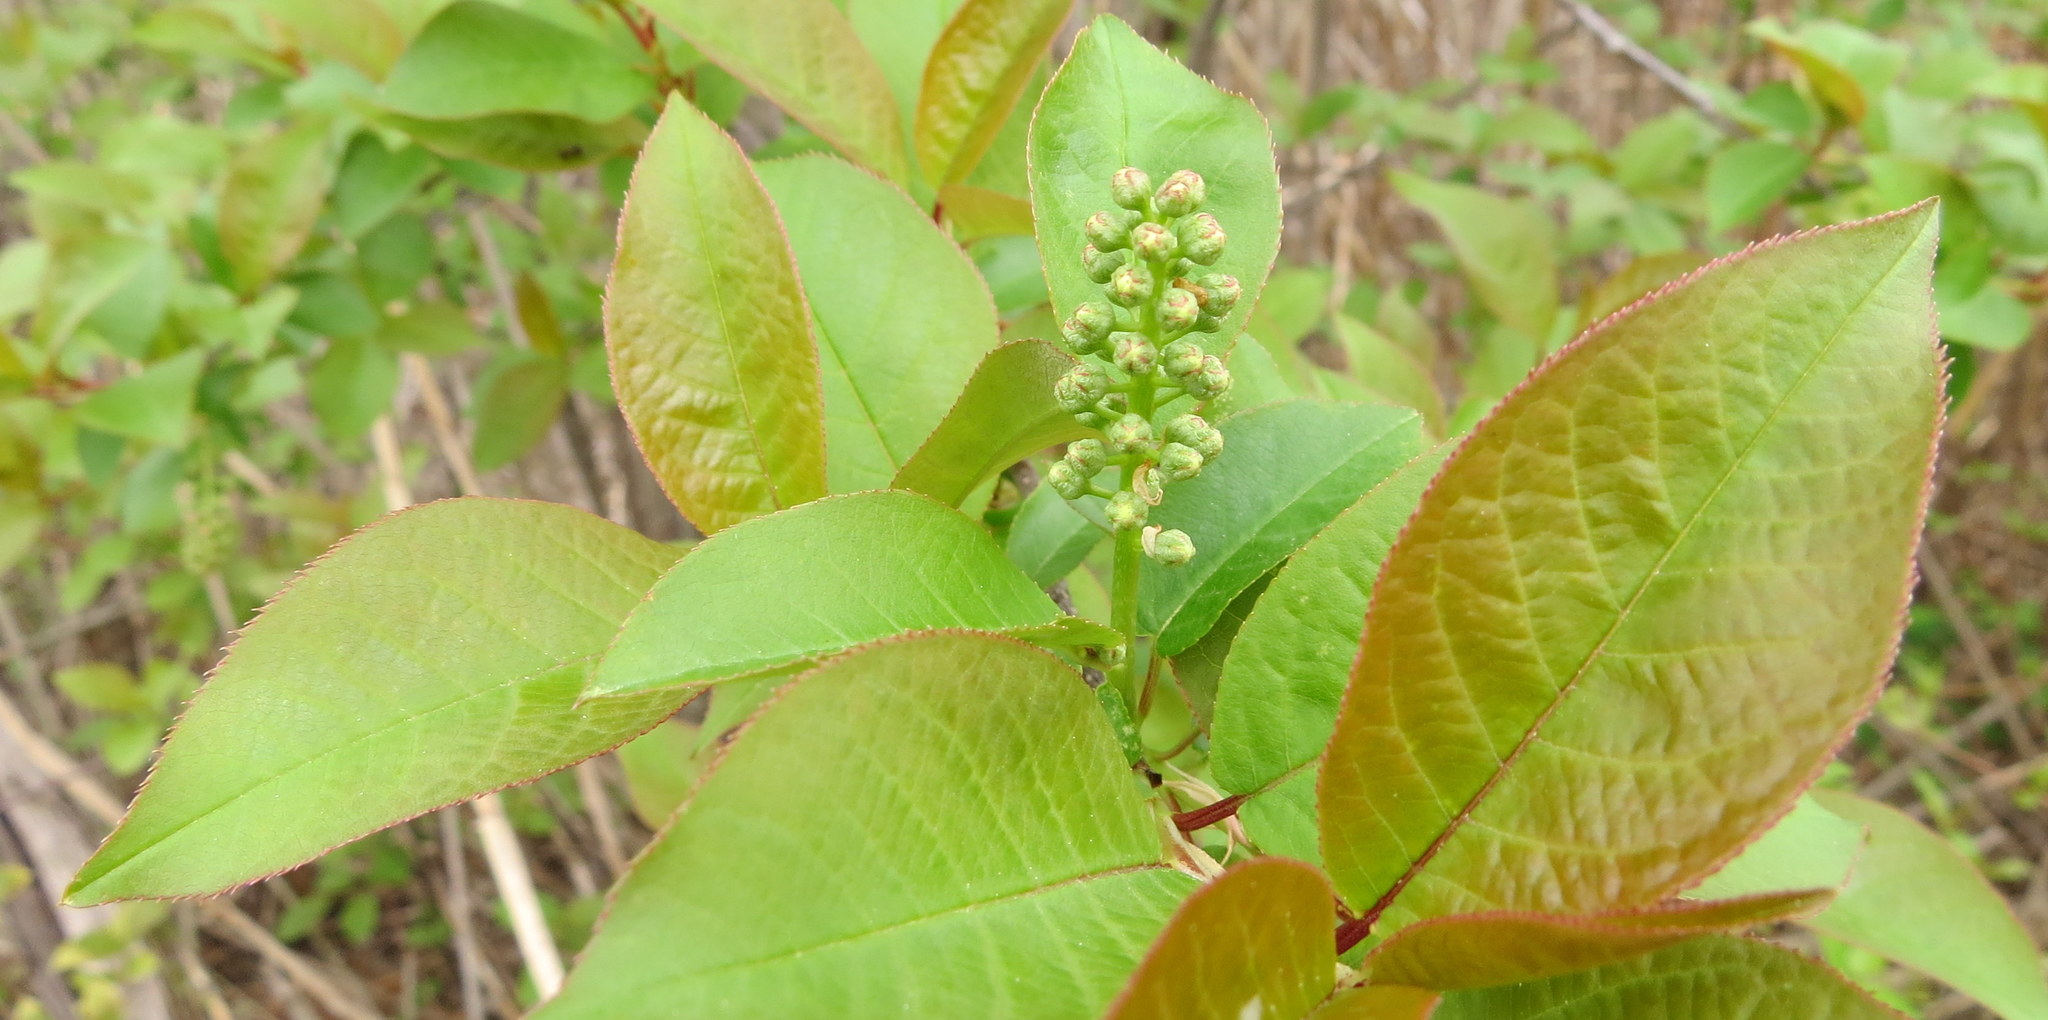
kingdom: Plantae
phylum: Tracheophyta
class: Magnoliopsida
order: Rosales
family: Rosaceae
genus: Prunus
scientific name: Prunus virginiana
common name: Chokecherry
